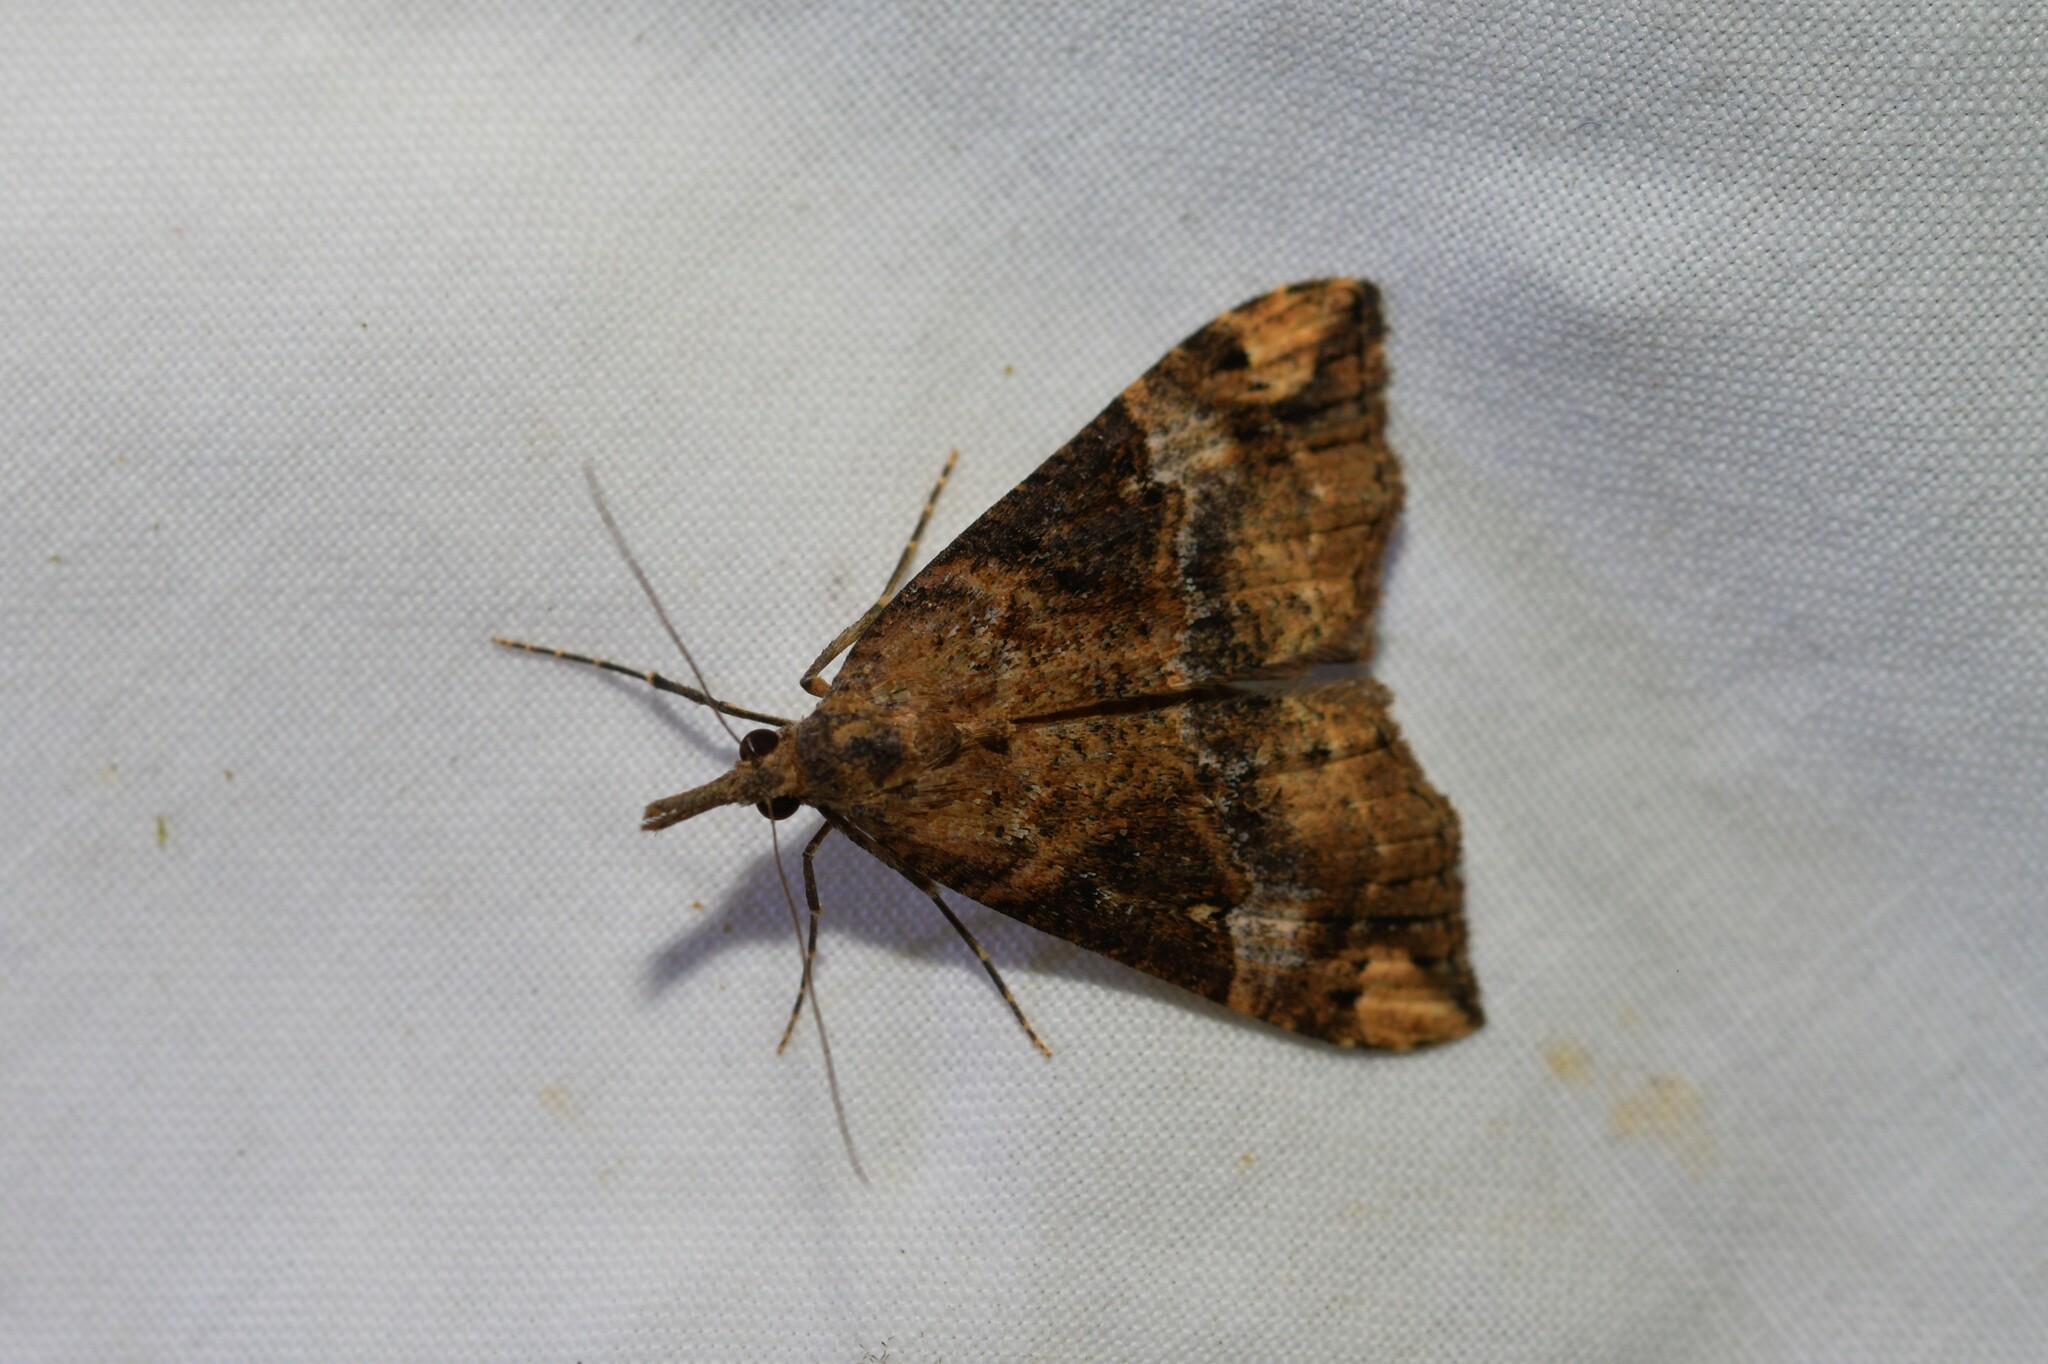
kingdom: Animalia
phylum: Arthropoda
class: Insecta
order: Lepidoptera
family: Erebidae
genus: Hypena
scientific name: Hypena obsitalis
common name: Bloxworth snout
